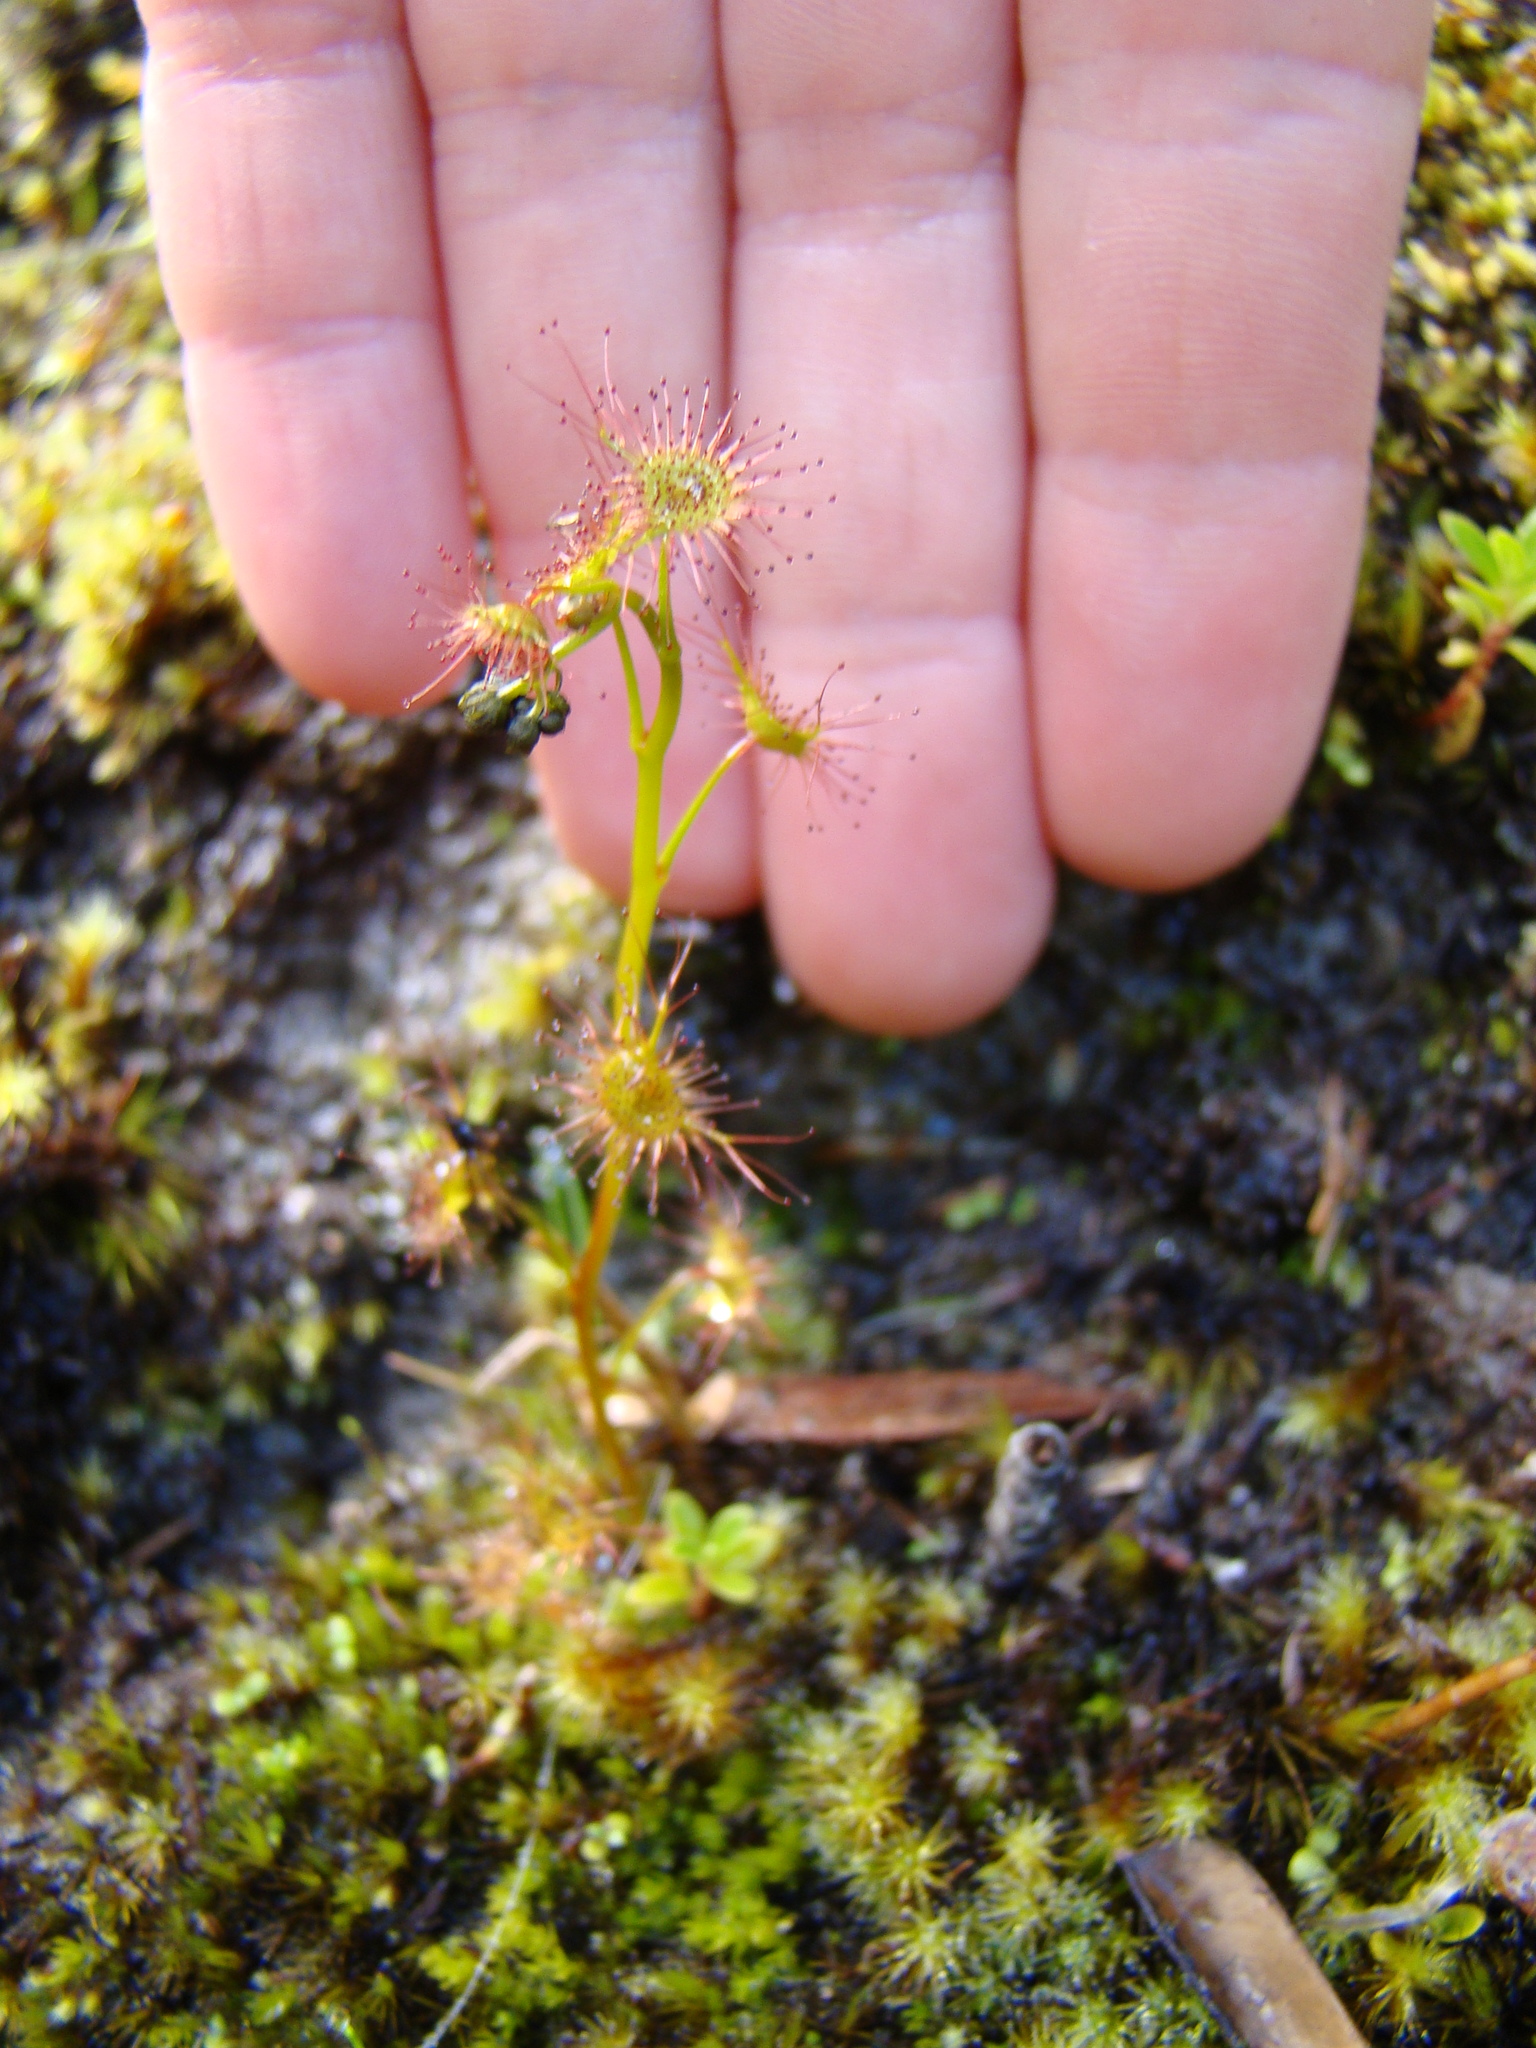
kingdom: Plantae
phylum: Tracheophyta
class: Magnoliopsida
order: Caryophyllales
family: Droseraceae
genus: Drosera
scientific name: Drosera peltata
